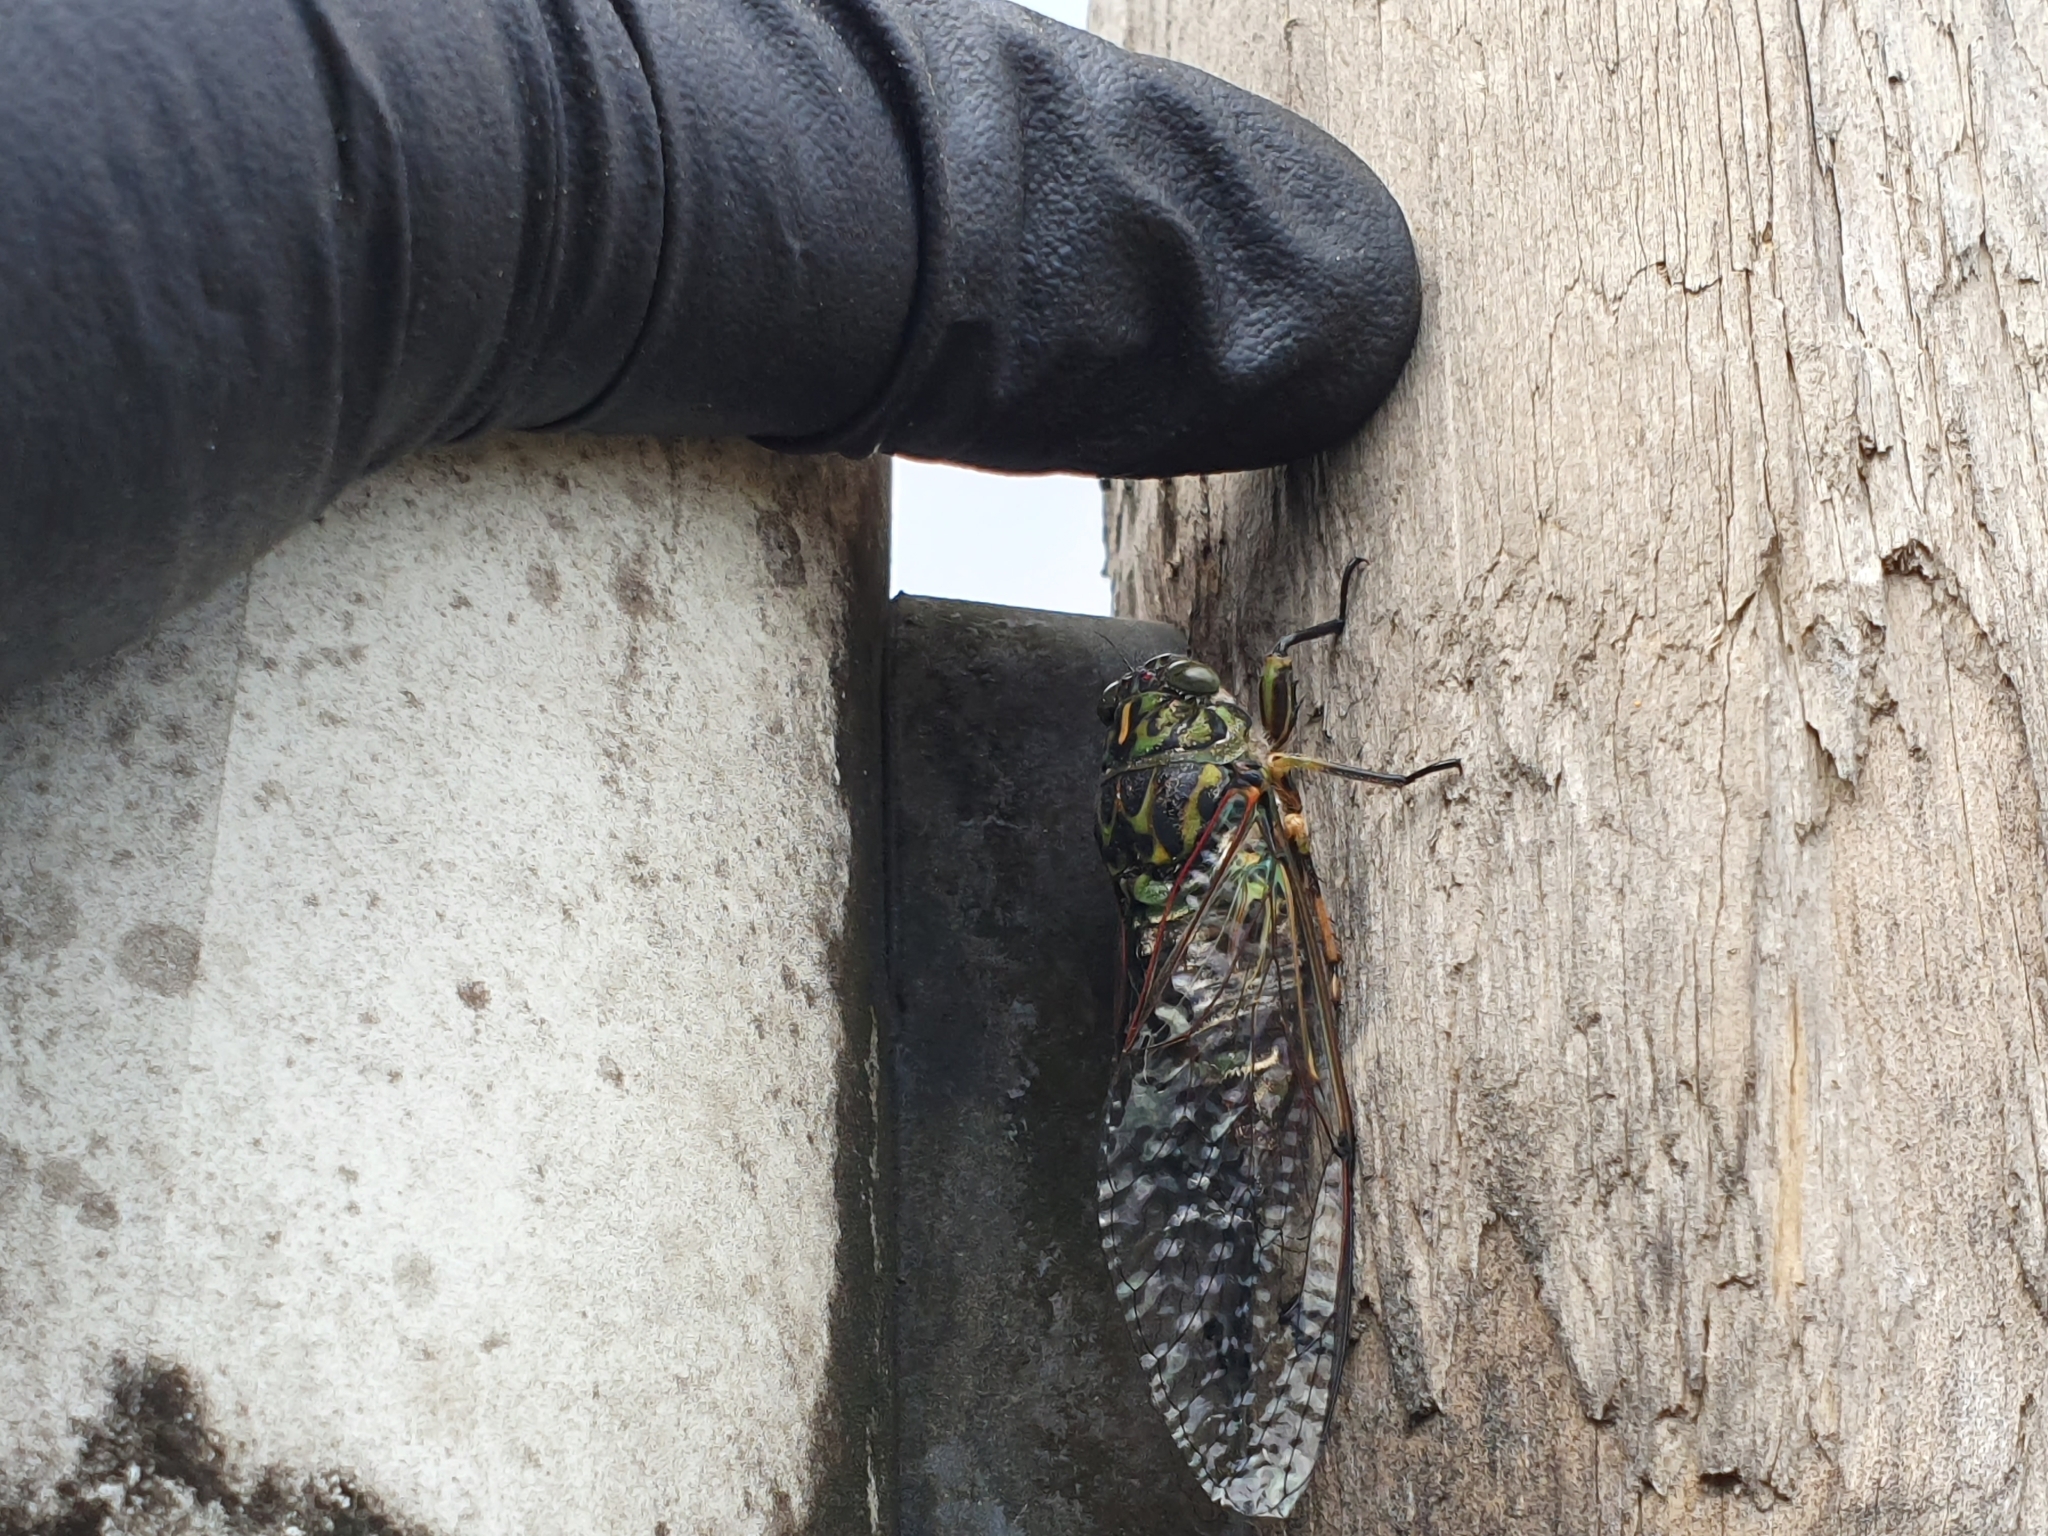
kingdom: Animalia
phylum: Arthropoda
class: Insecta
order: Hemiptera
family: Cicadidae
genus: Amphipsalta
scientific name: Amphipsalta zelandica
